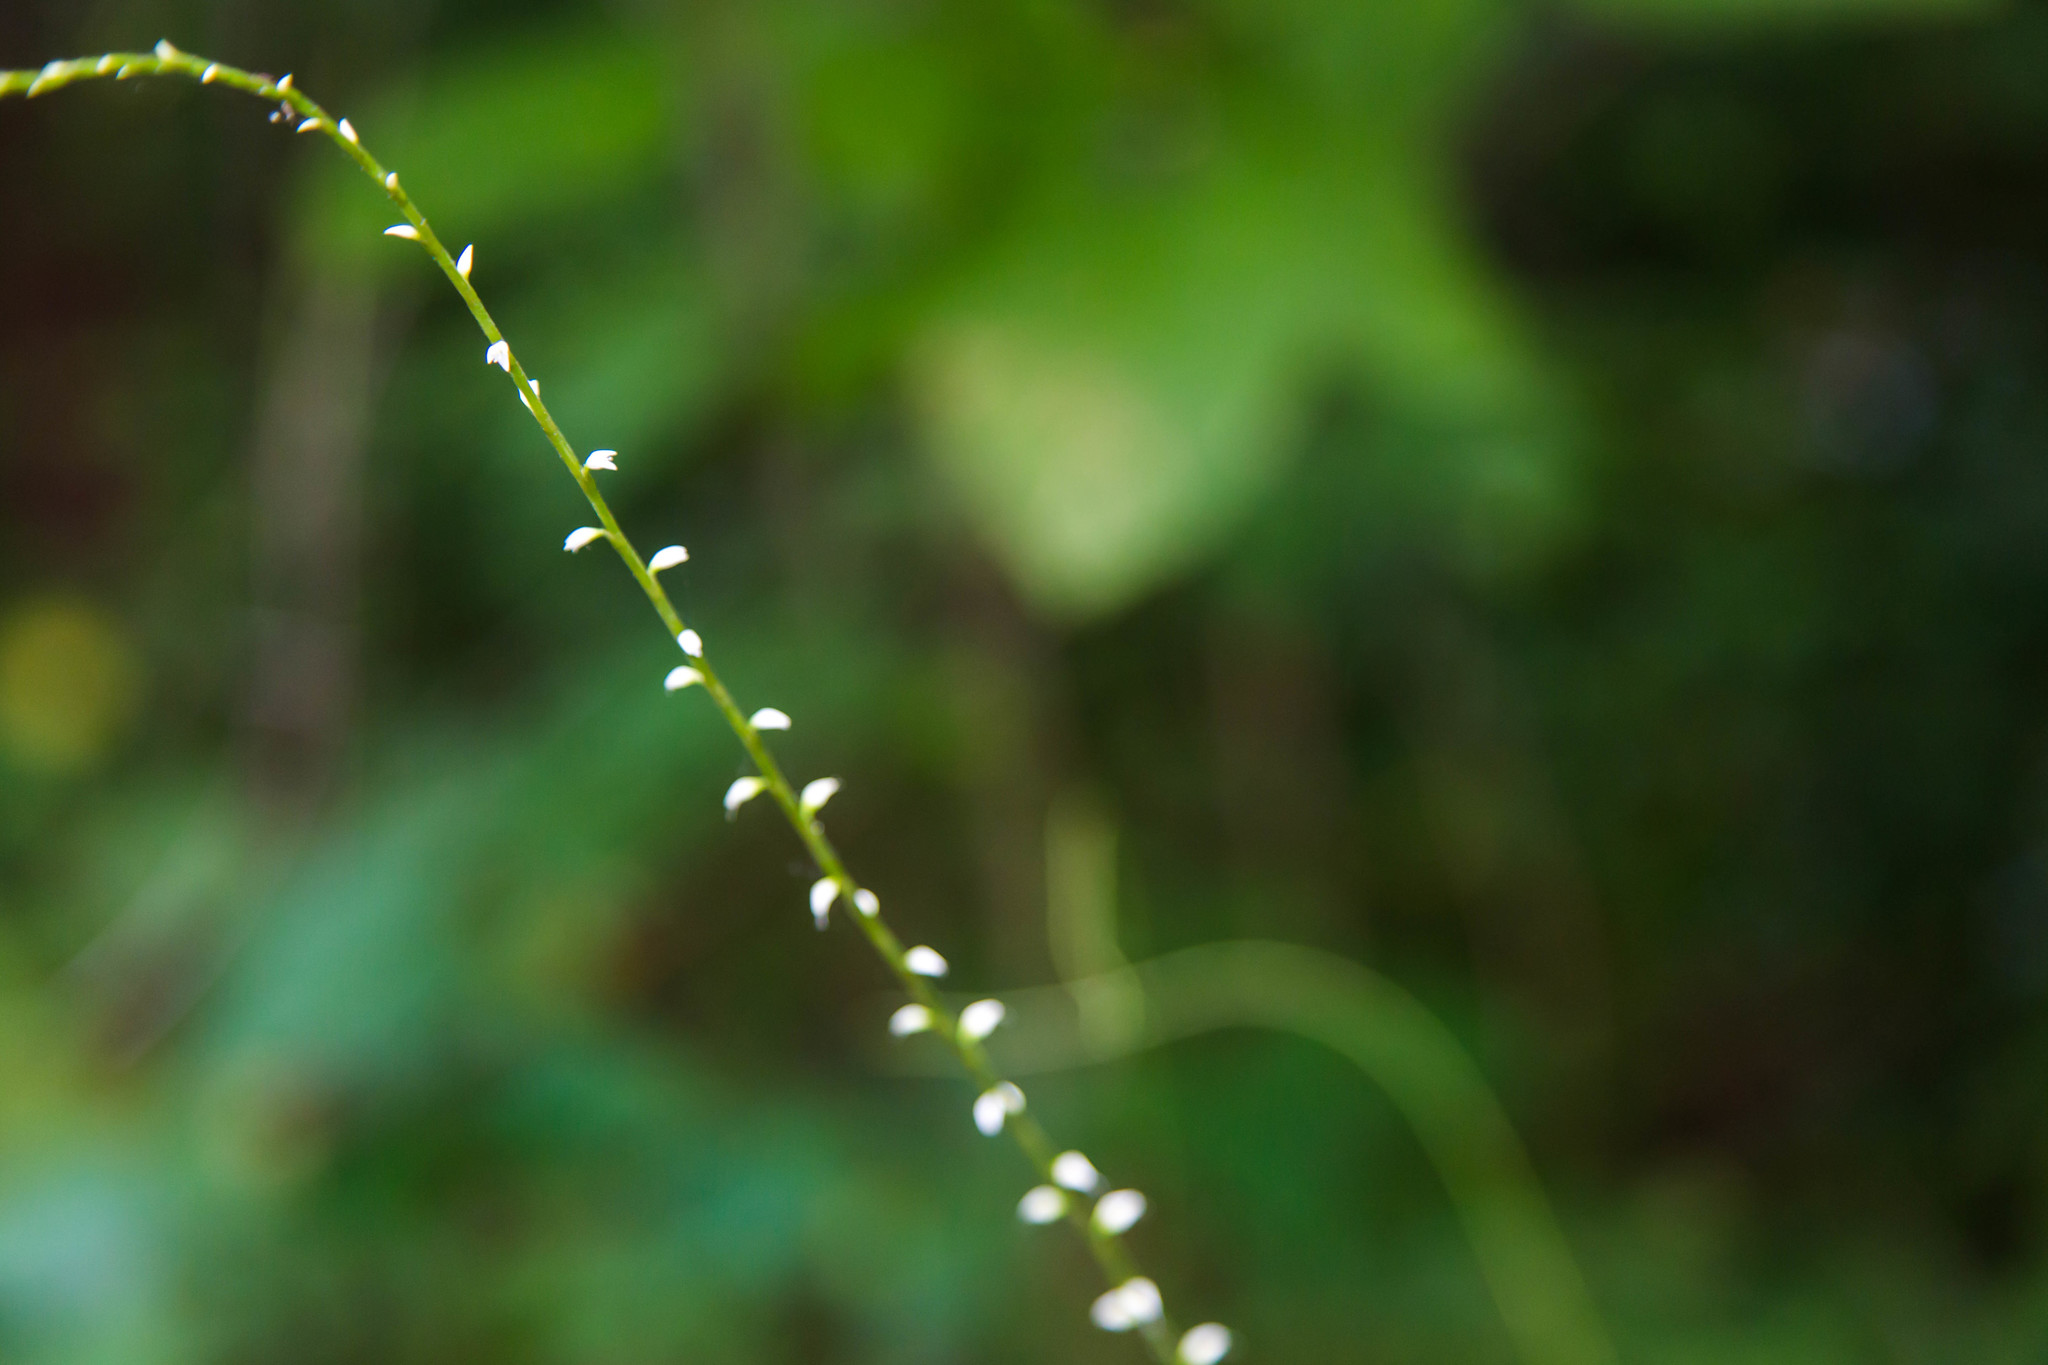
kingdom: Plantae
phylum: Tracheophyta
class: Magnoliopsida
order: Caryophyllales
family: Polygonaceae
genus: Persicaria
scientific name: Persicaria virginiana
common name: Jumpseed
